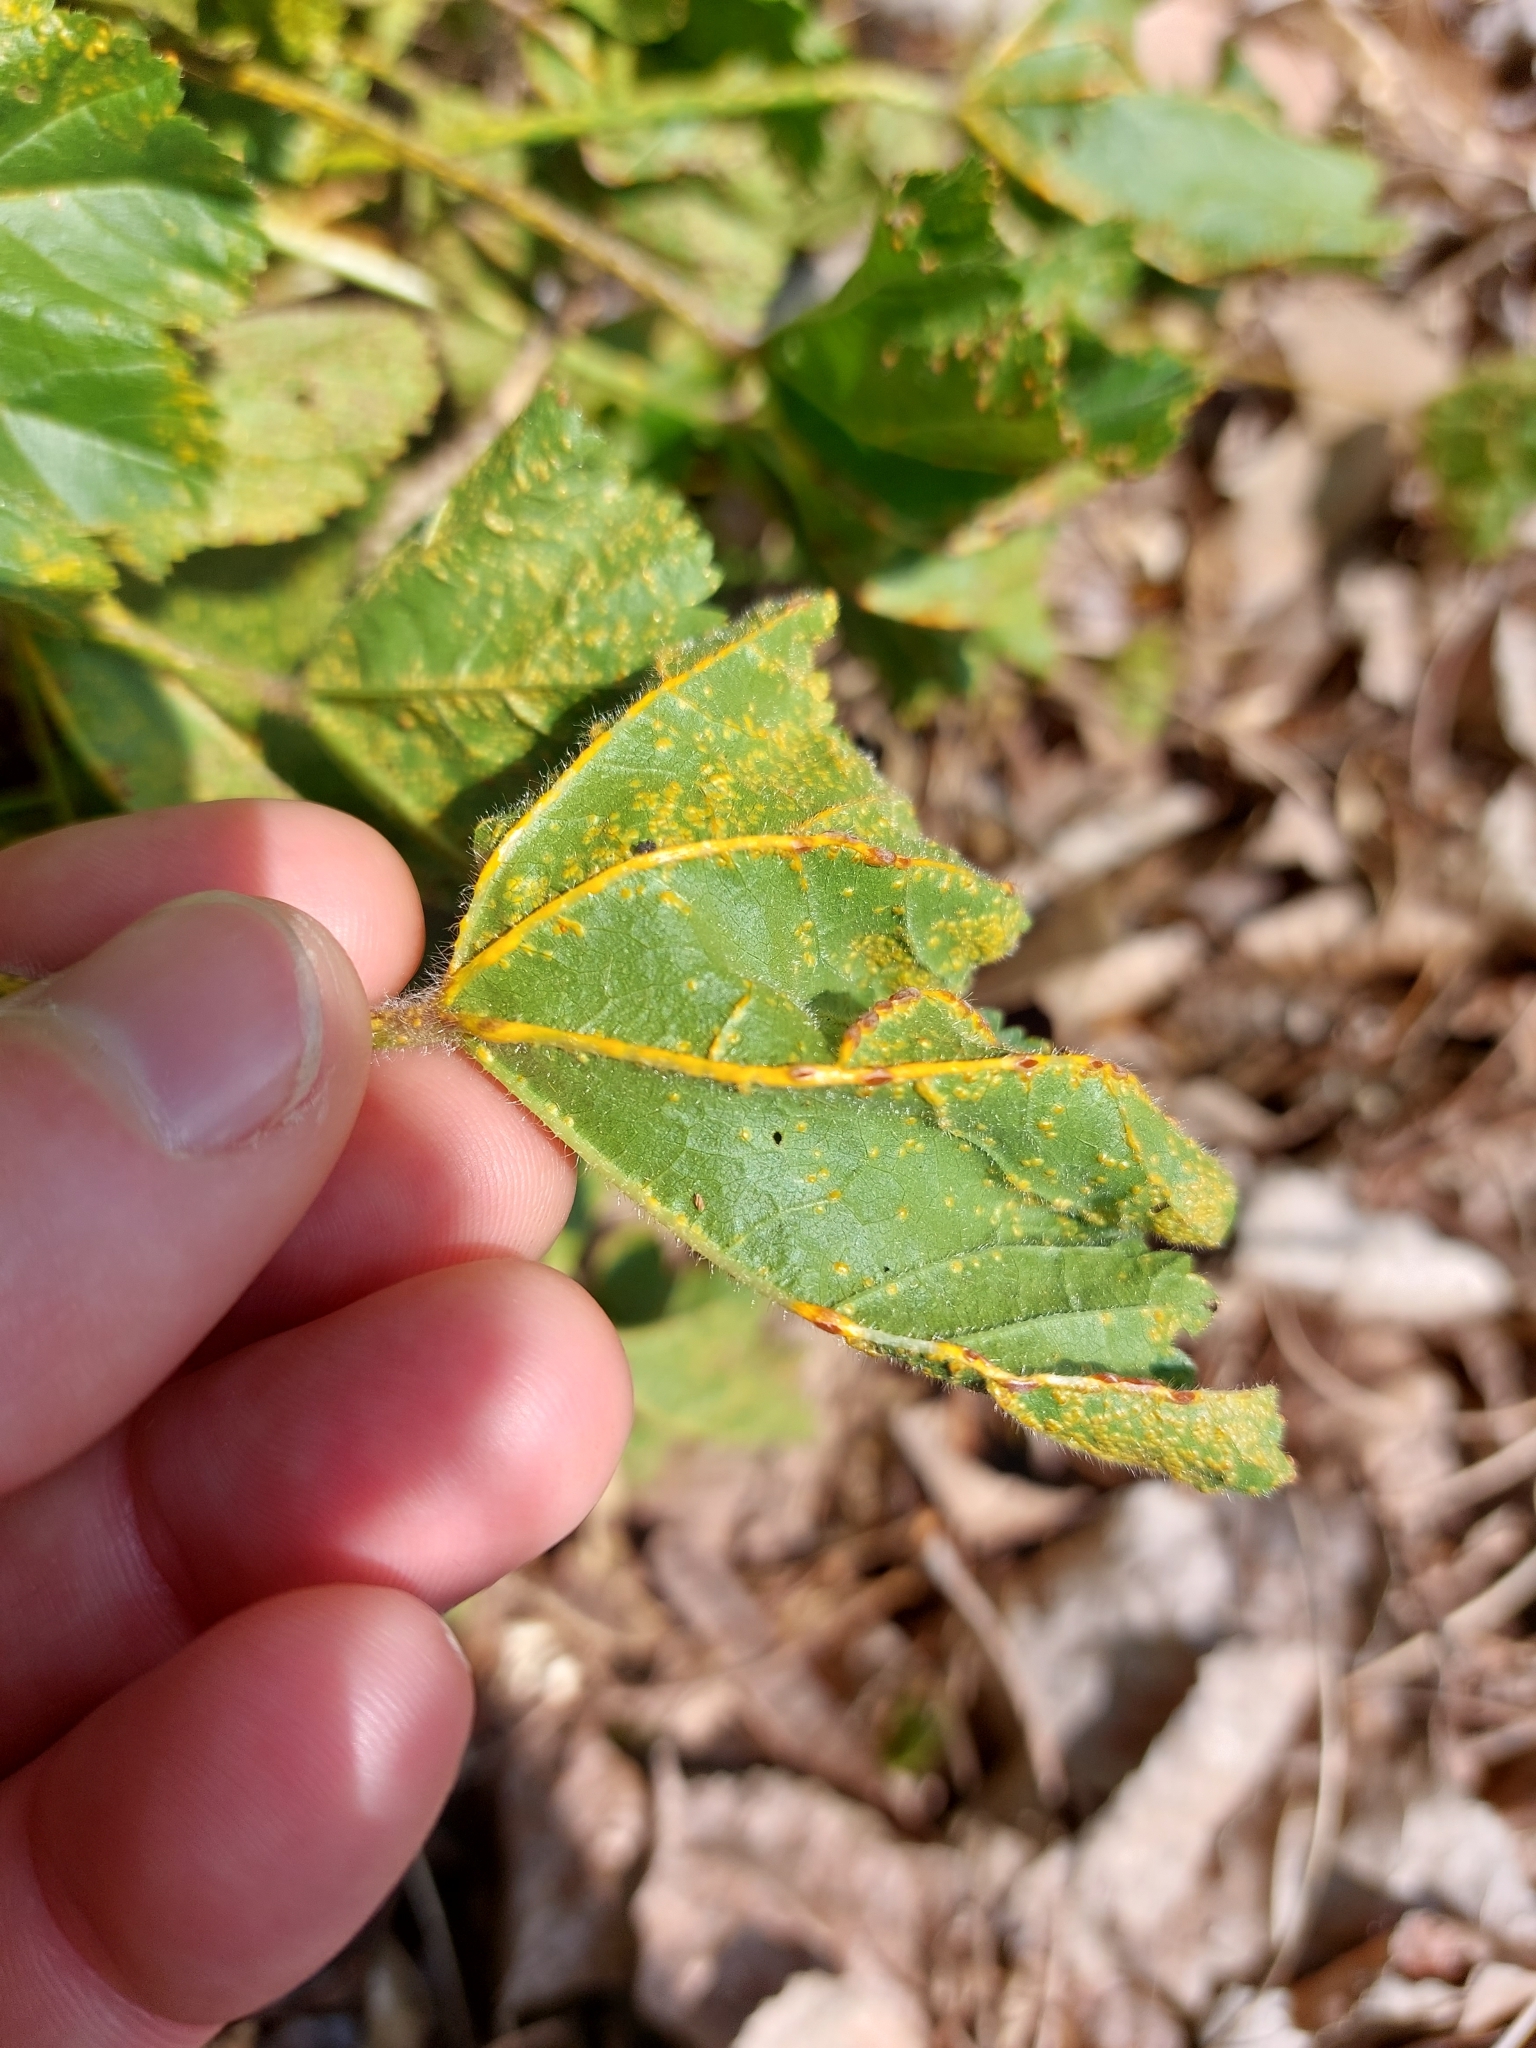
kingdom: Fungi
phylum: Basidiomycota
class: Pucciniomycetes
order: Pucciniales
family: Pucciniaceae
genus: Puccinia
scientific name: Puccinia malvacearum
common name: Hollyhock rust
